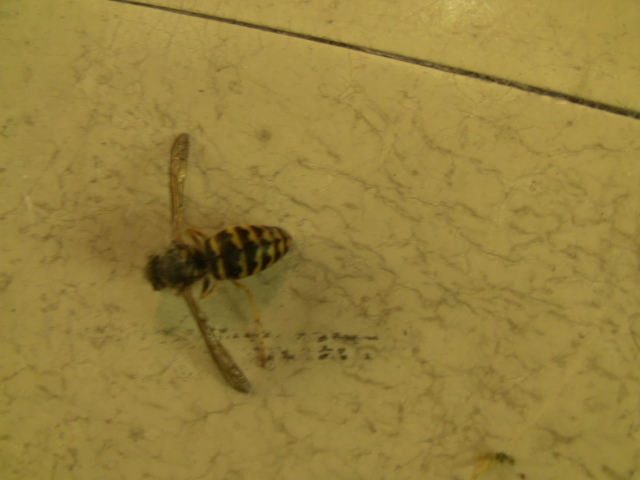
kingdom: Animalia
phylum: Arthropoda
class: Insecta
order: Hymenoptera
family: Vespidae
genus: Dolichovespula
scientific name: Dolichovespula arenaria
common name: Aerial yellowjacket
